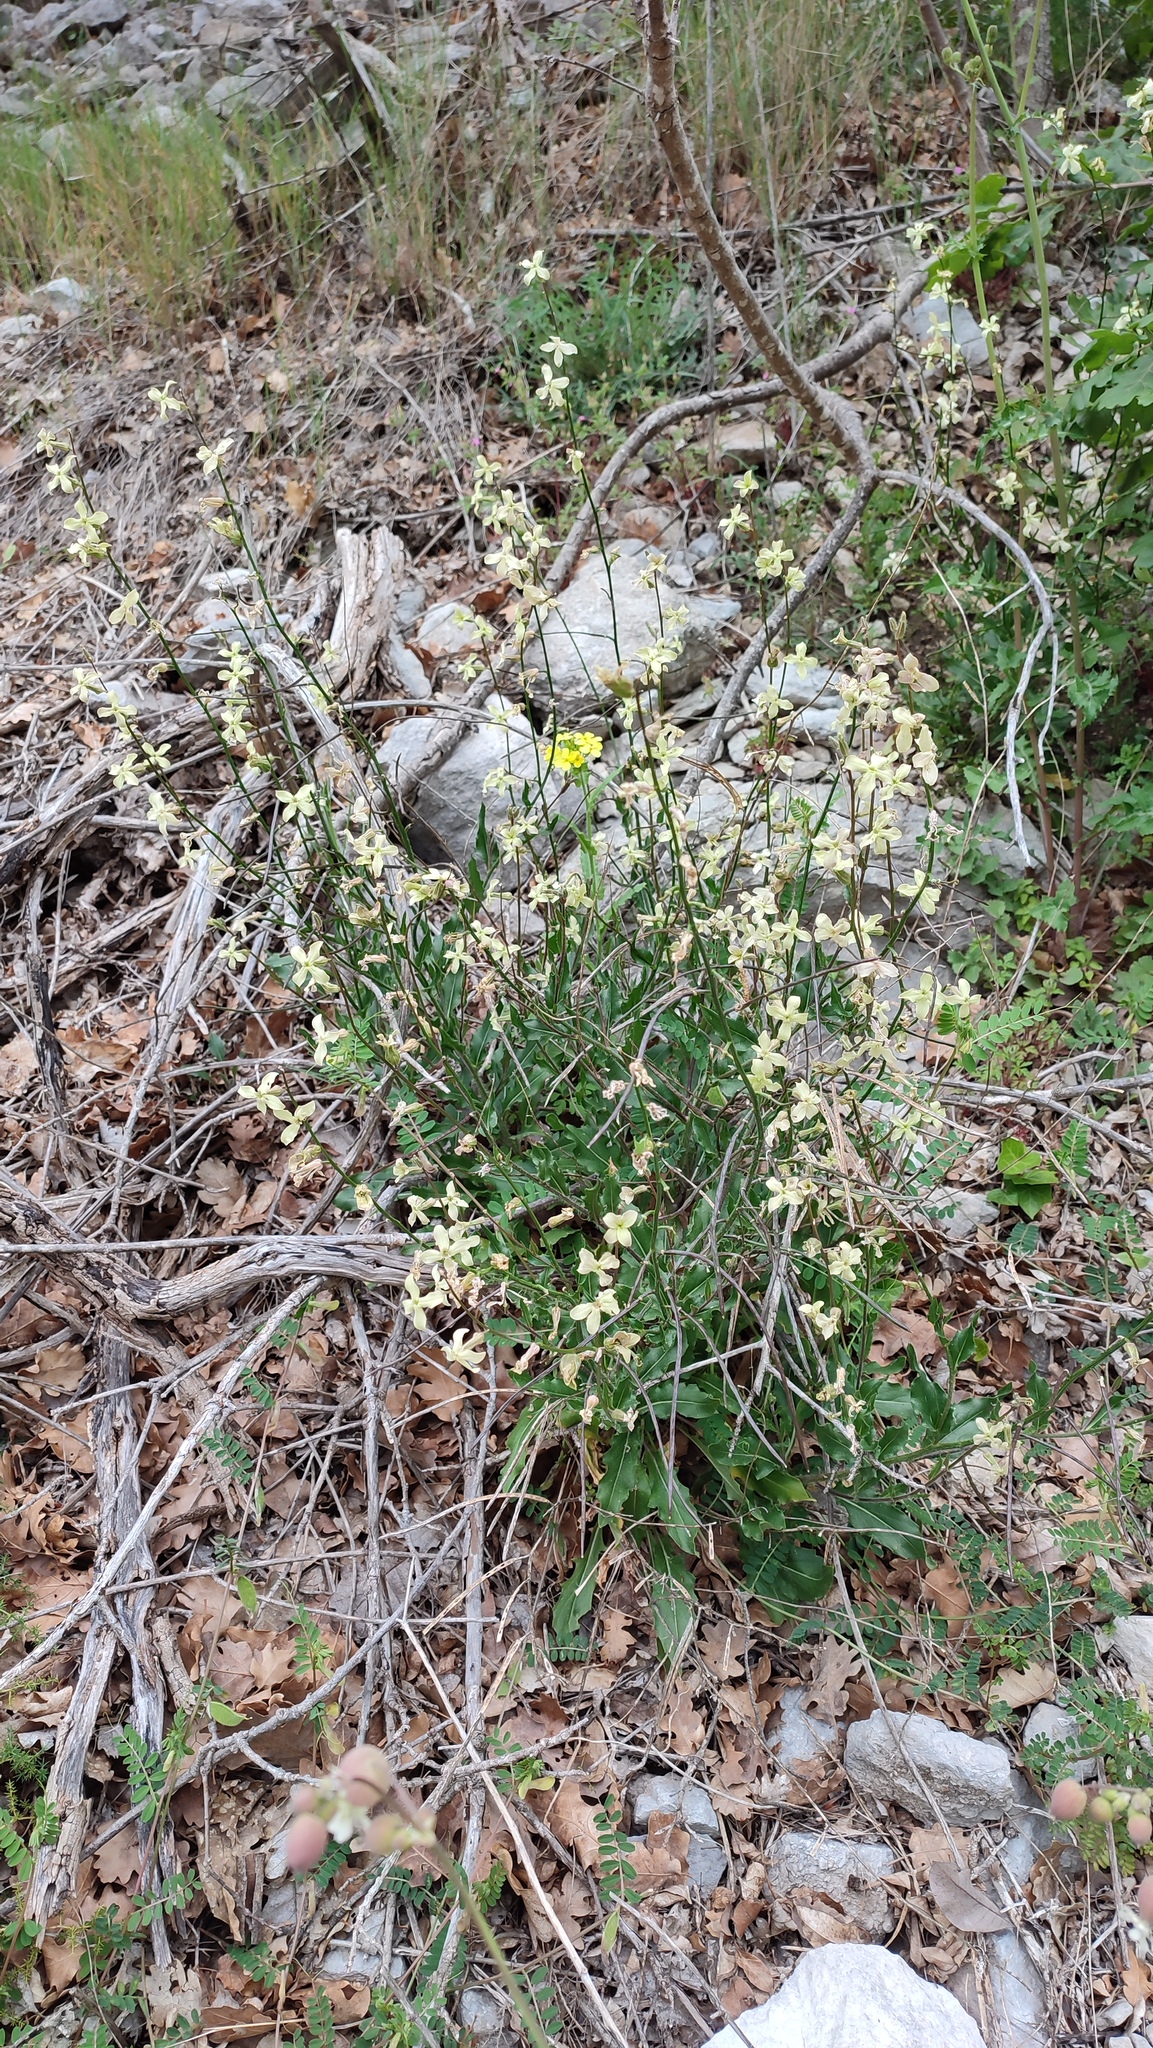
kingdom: Plantae
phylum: Tracheophyta
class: Magnoliopsida
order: Brassicales
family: Brassicaceae
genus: Eruca
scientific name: Eruca vesicaria
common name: Garden rocket
